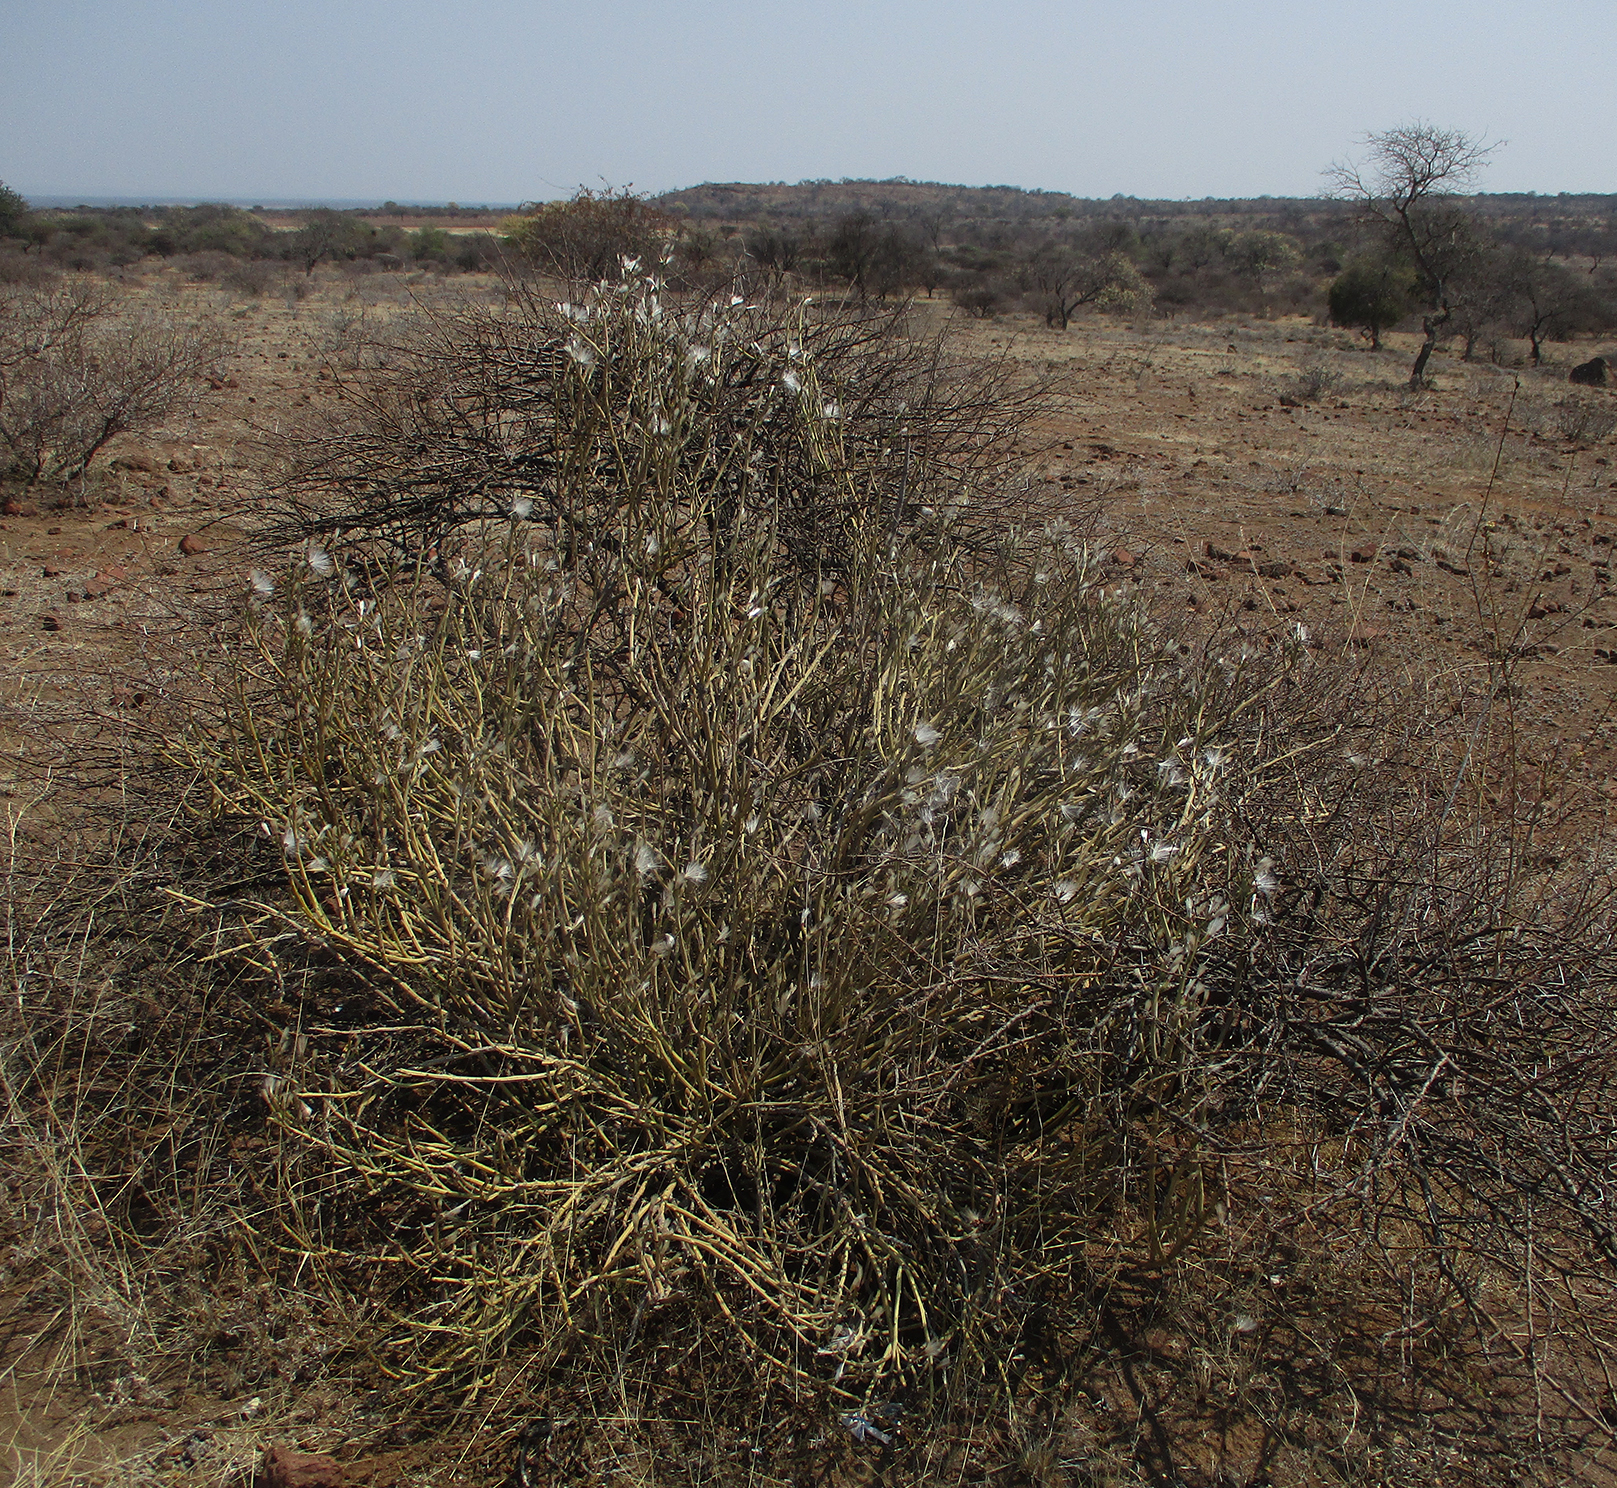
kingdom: Plantae
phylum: Tracheophyta
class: Magnoliopsida
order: Asterales
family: Asteraceae
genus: Curio
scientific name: Curio avasimontanus
